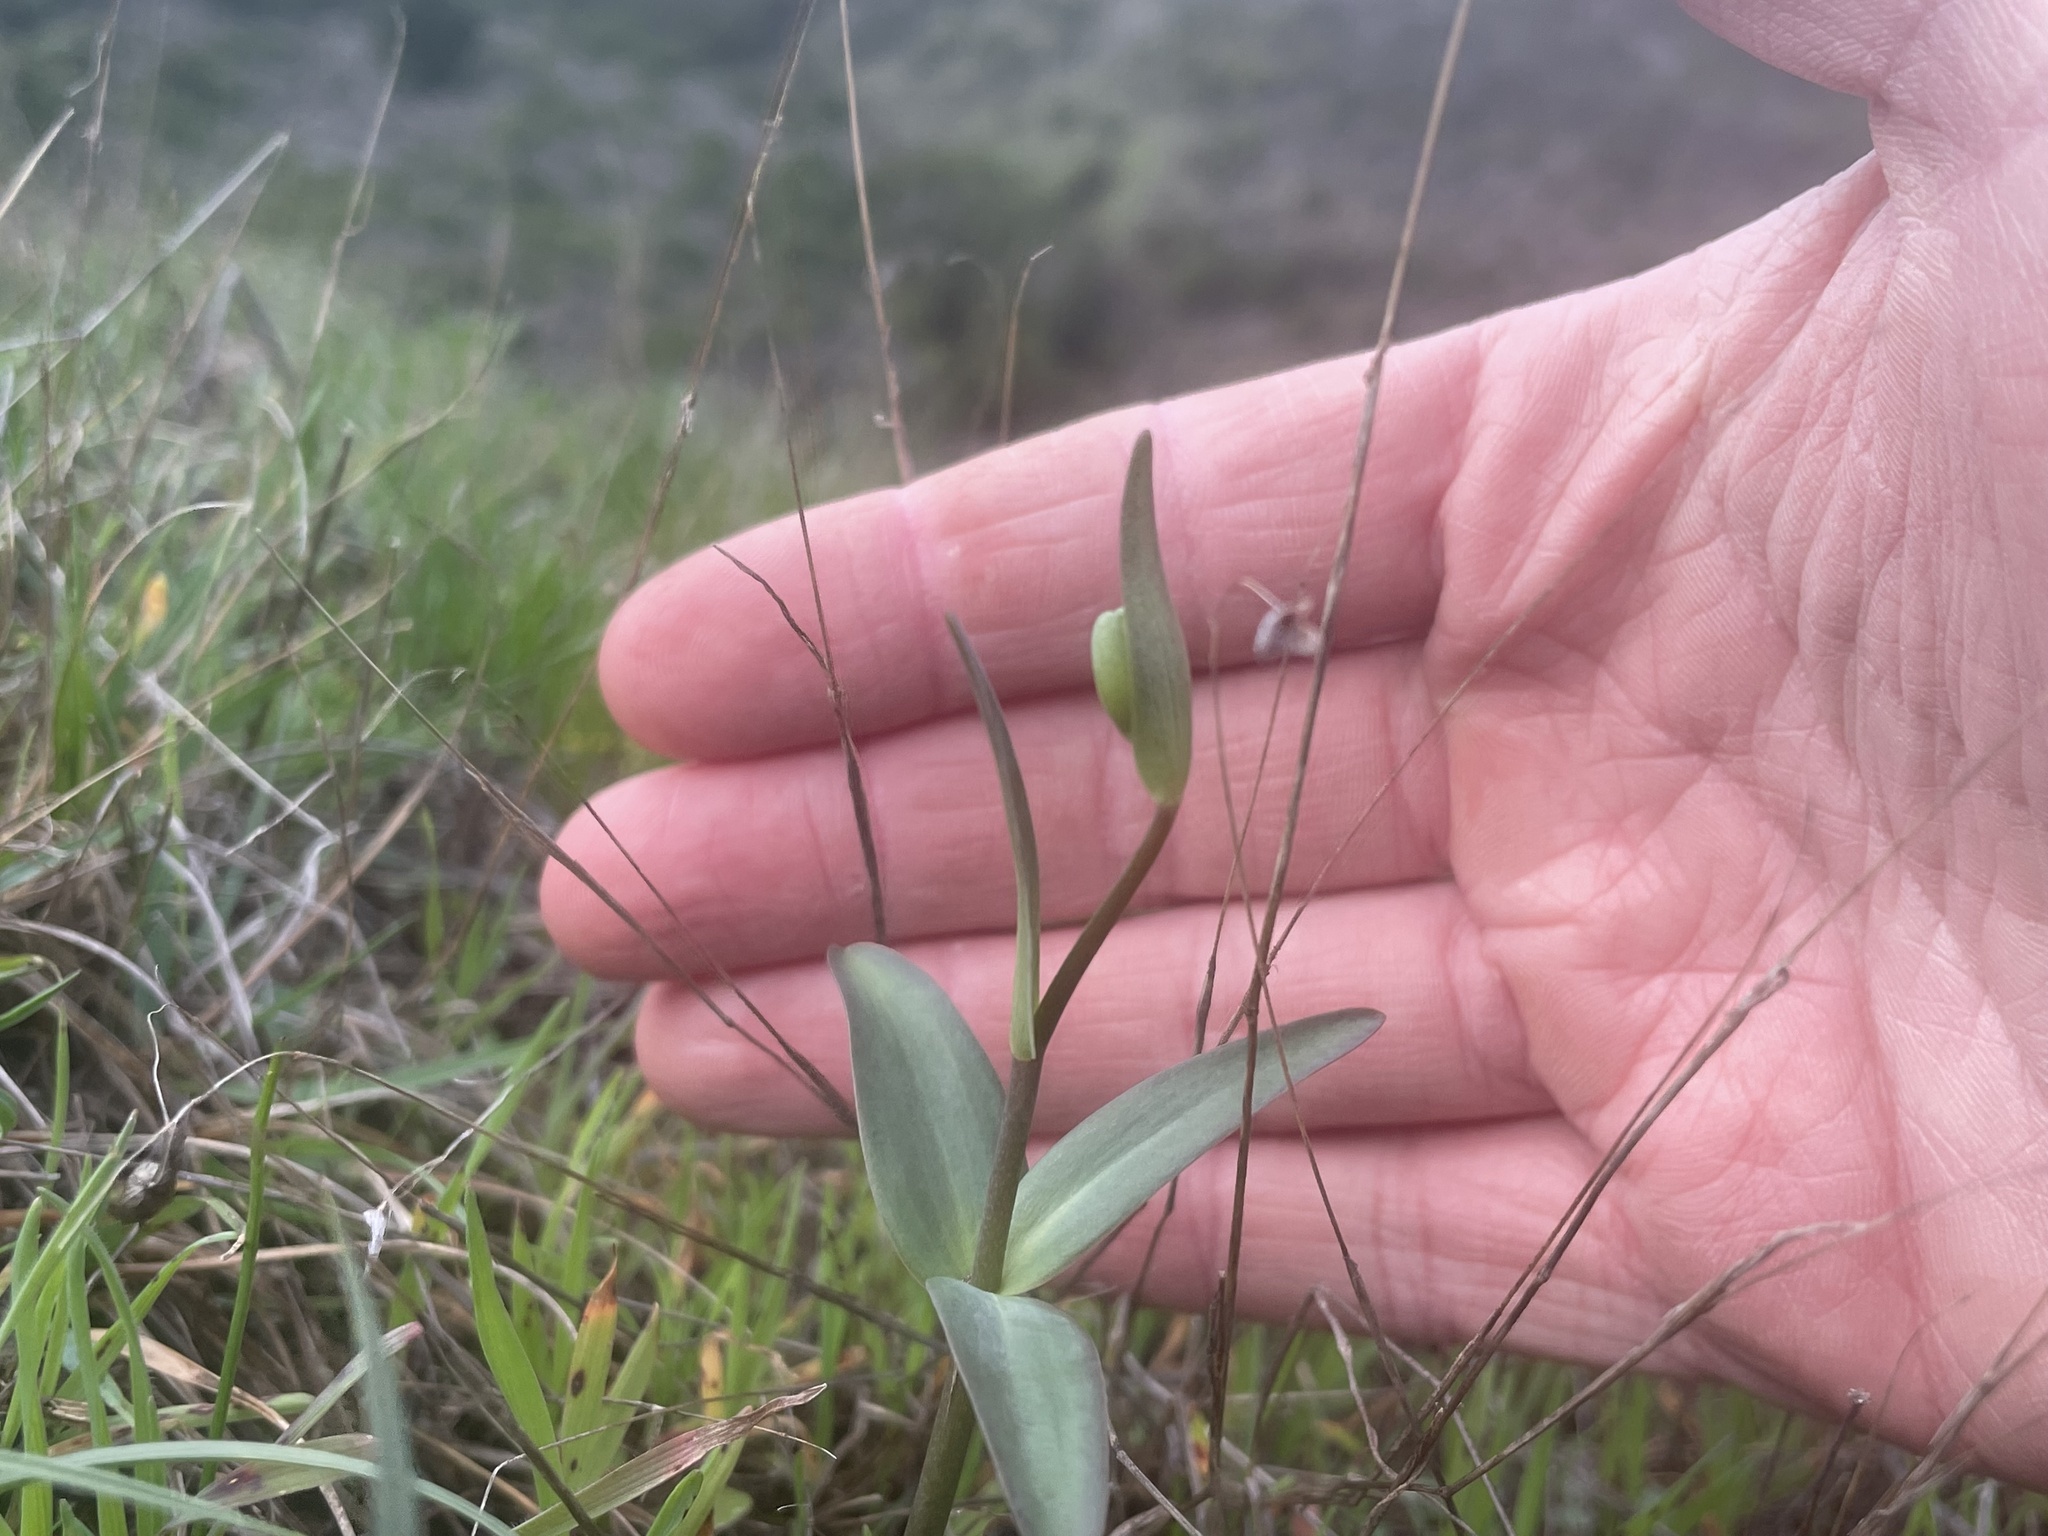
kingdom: Plantae
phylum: Tracheophyta
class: Liliopsida
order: Liliales
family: Liliaceae
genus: Fritillaria
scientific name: Fritillaria affinis
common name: Ojai fritillary
